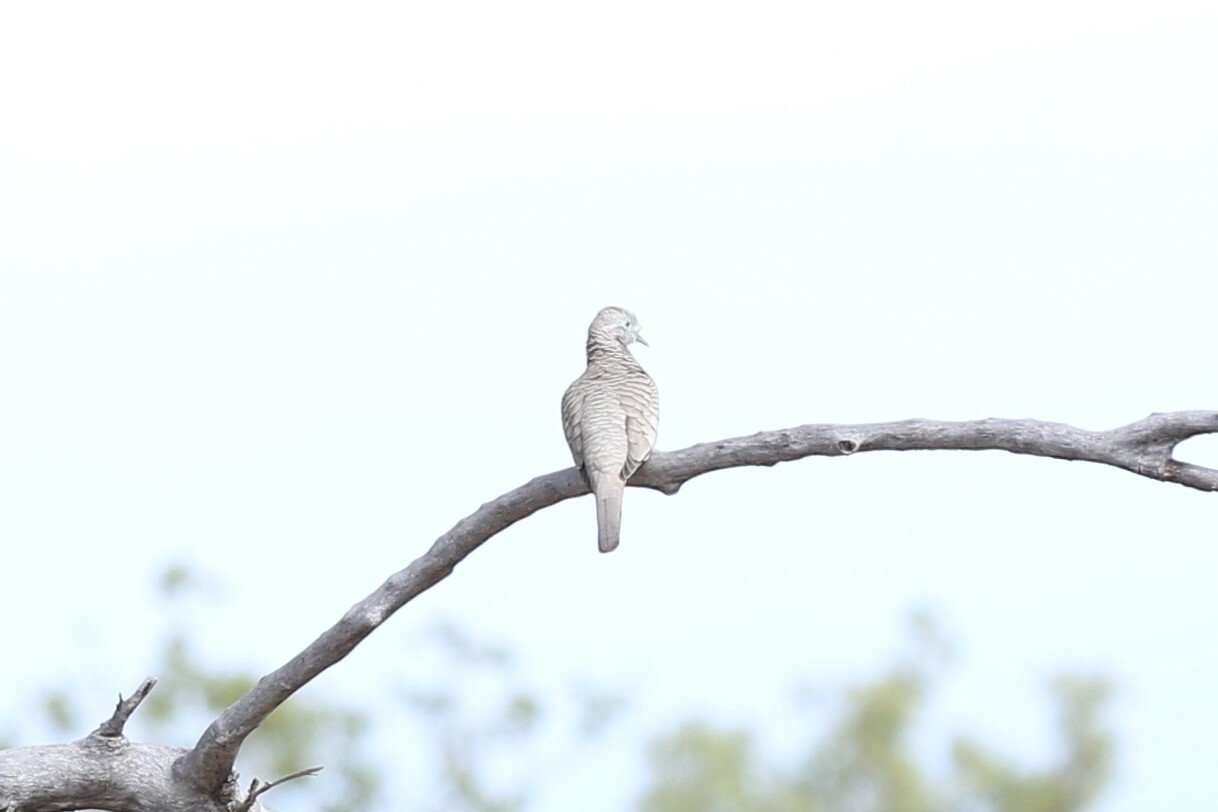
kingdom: Animalia
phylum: Chordata
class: Aves
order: Columbiformes
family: Columbidae
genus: Geopelia
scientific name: Geopelia placida
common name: Peaceful dove
